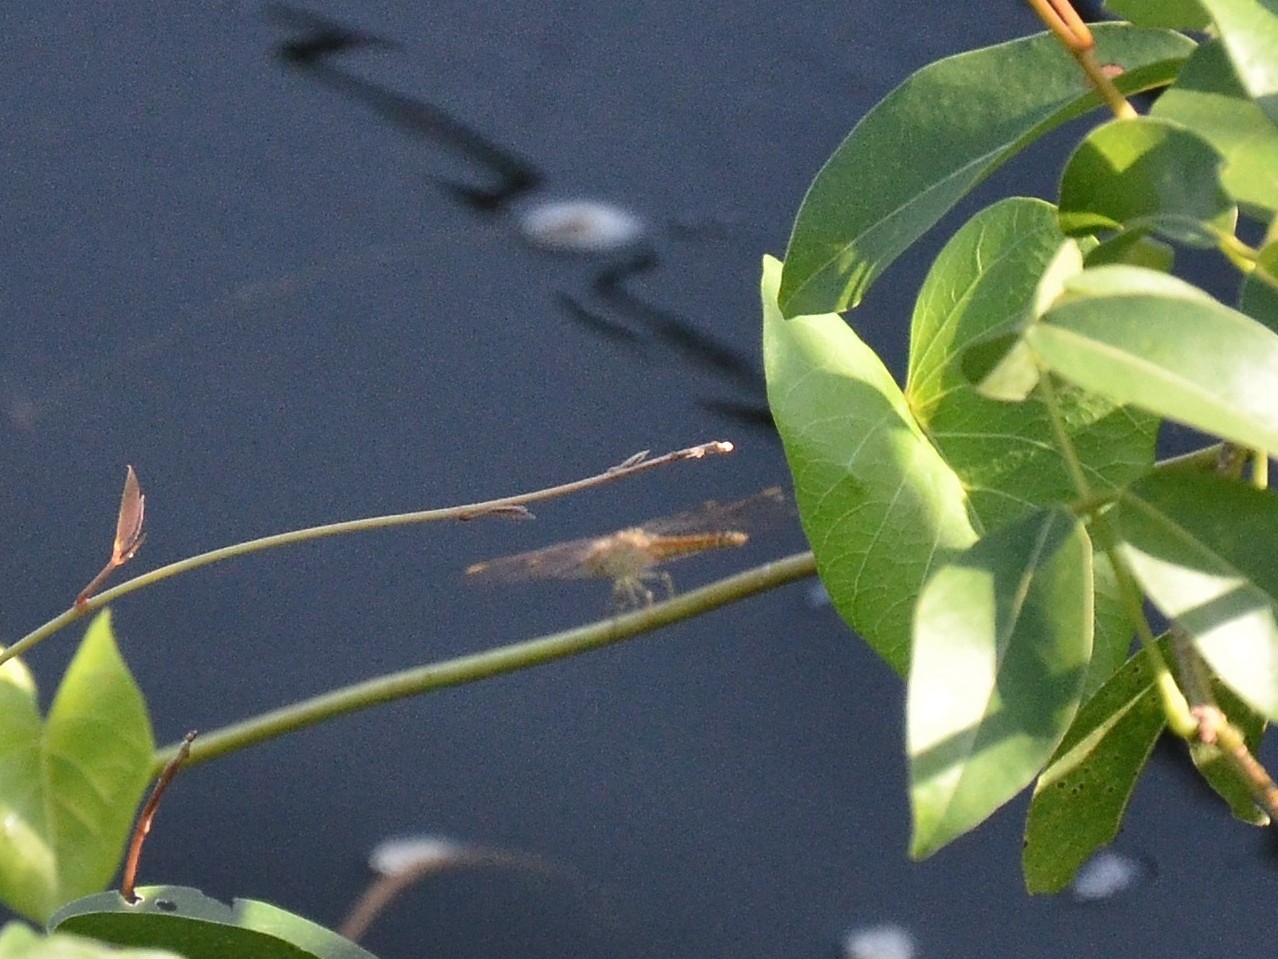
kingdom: Animalia
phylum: Arthropoda
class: Insecta
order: Odonata
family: Libellulidae
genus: Brachythemis
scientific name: Brachythemis contaminata
